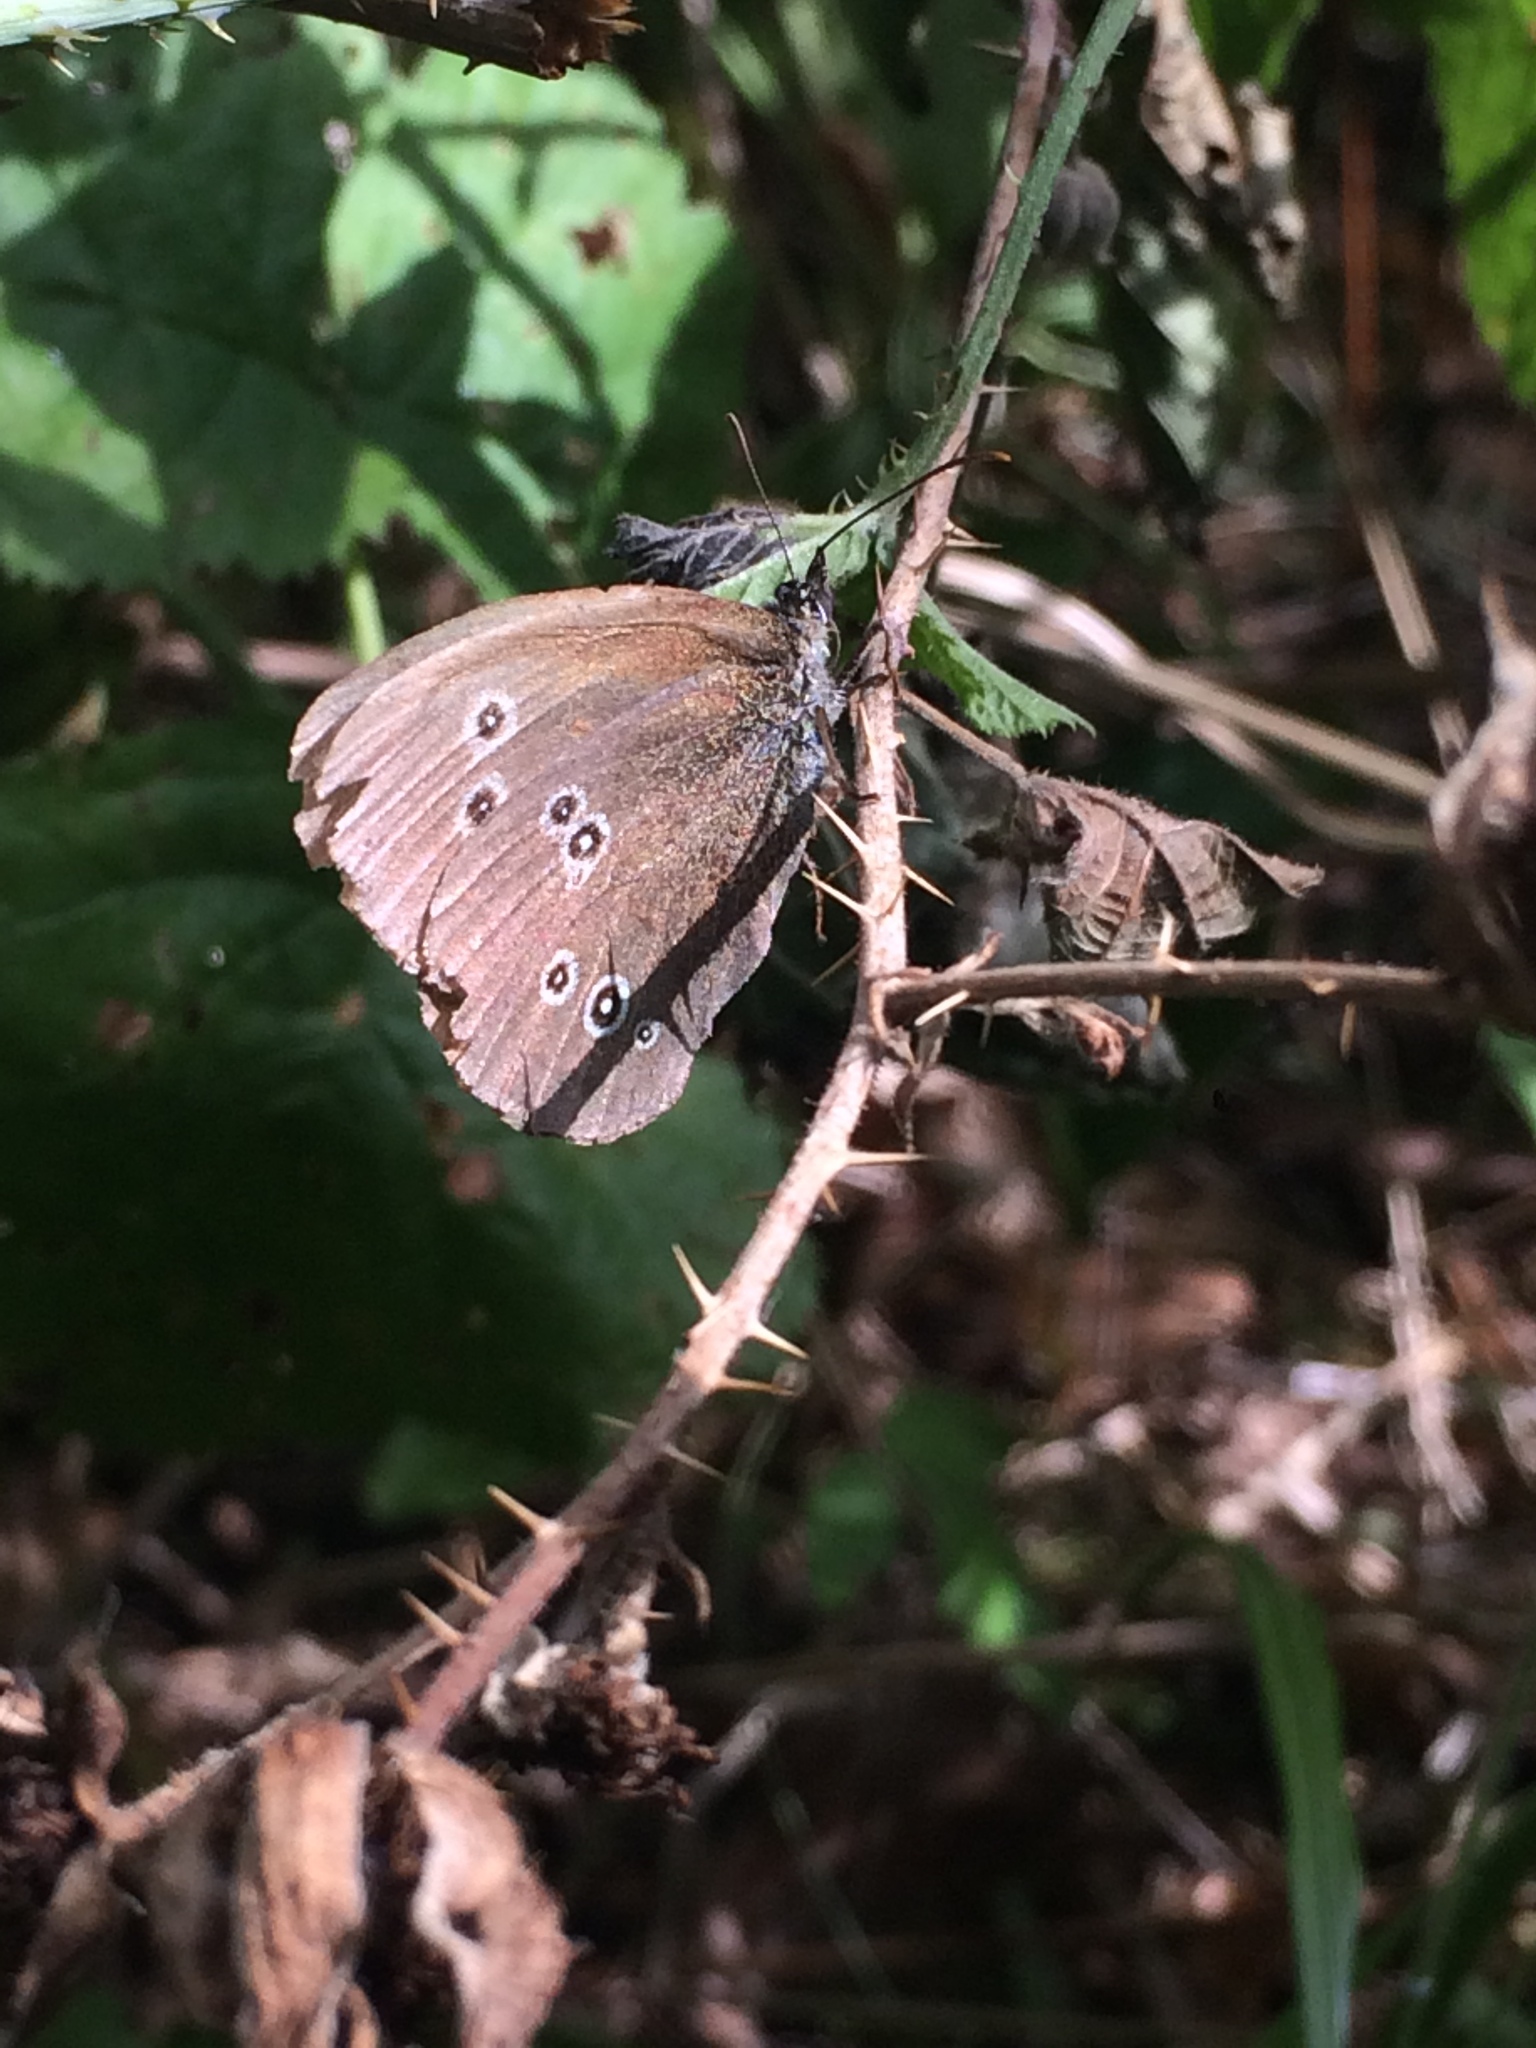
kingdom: Animalia
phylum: Arthropoda
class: Insecta
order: Lepidoptera
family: Nymphalidae
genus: Aphantopus
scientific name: Aphantopus hyperantus
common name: Ringlet
